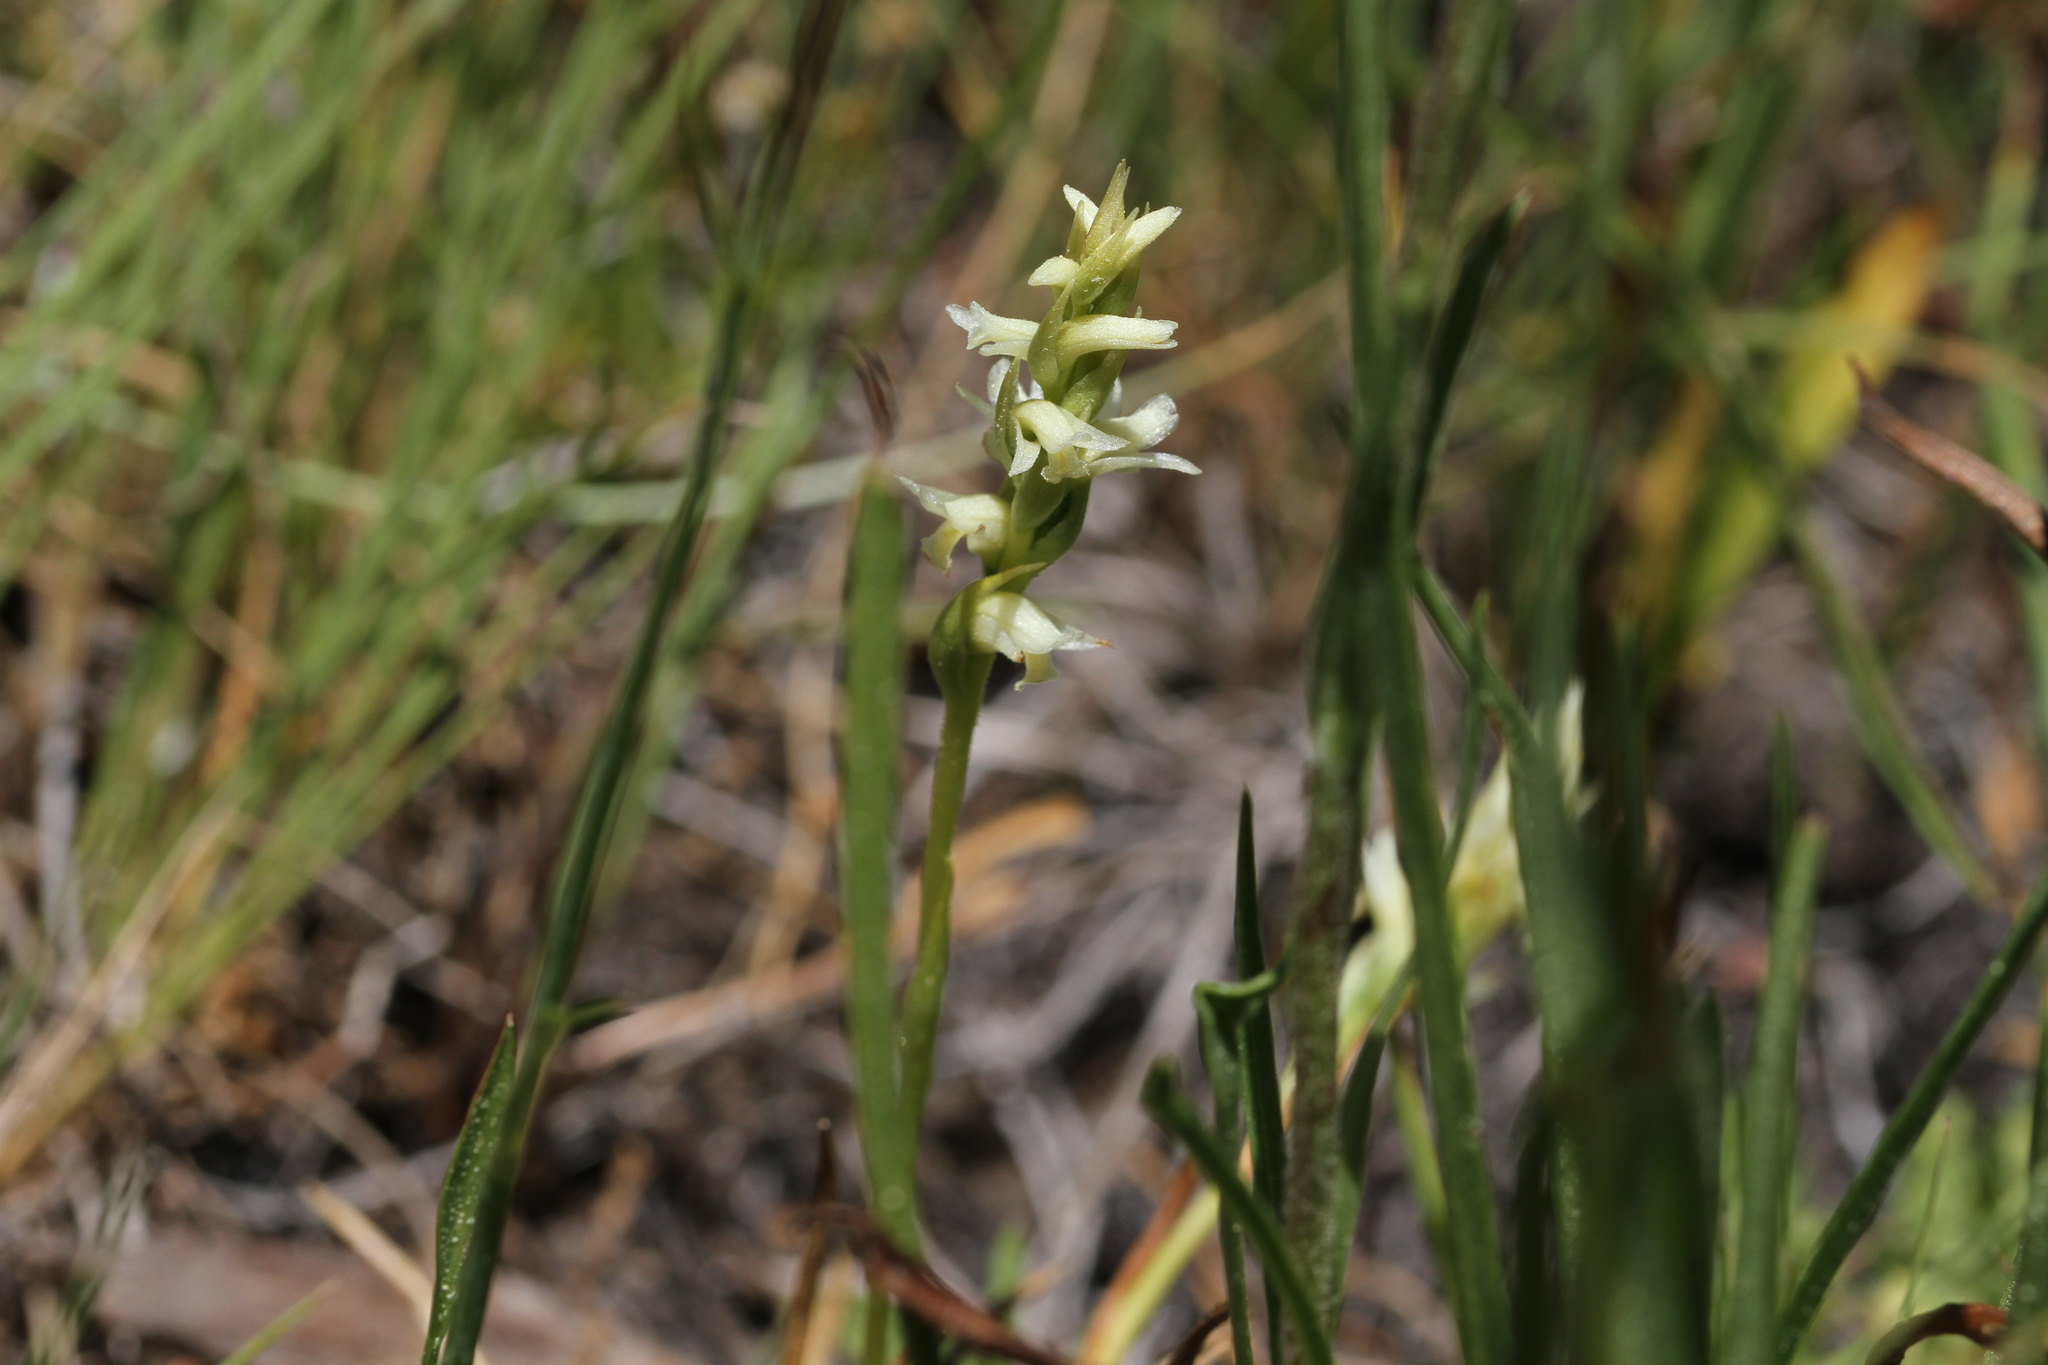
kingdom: Plantae
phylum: Tracheophyta
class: Liliopsida
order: Asparagales
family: Orchidaceae
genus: Spiranthes
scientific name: Spiranthes stellata
